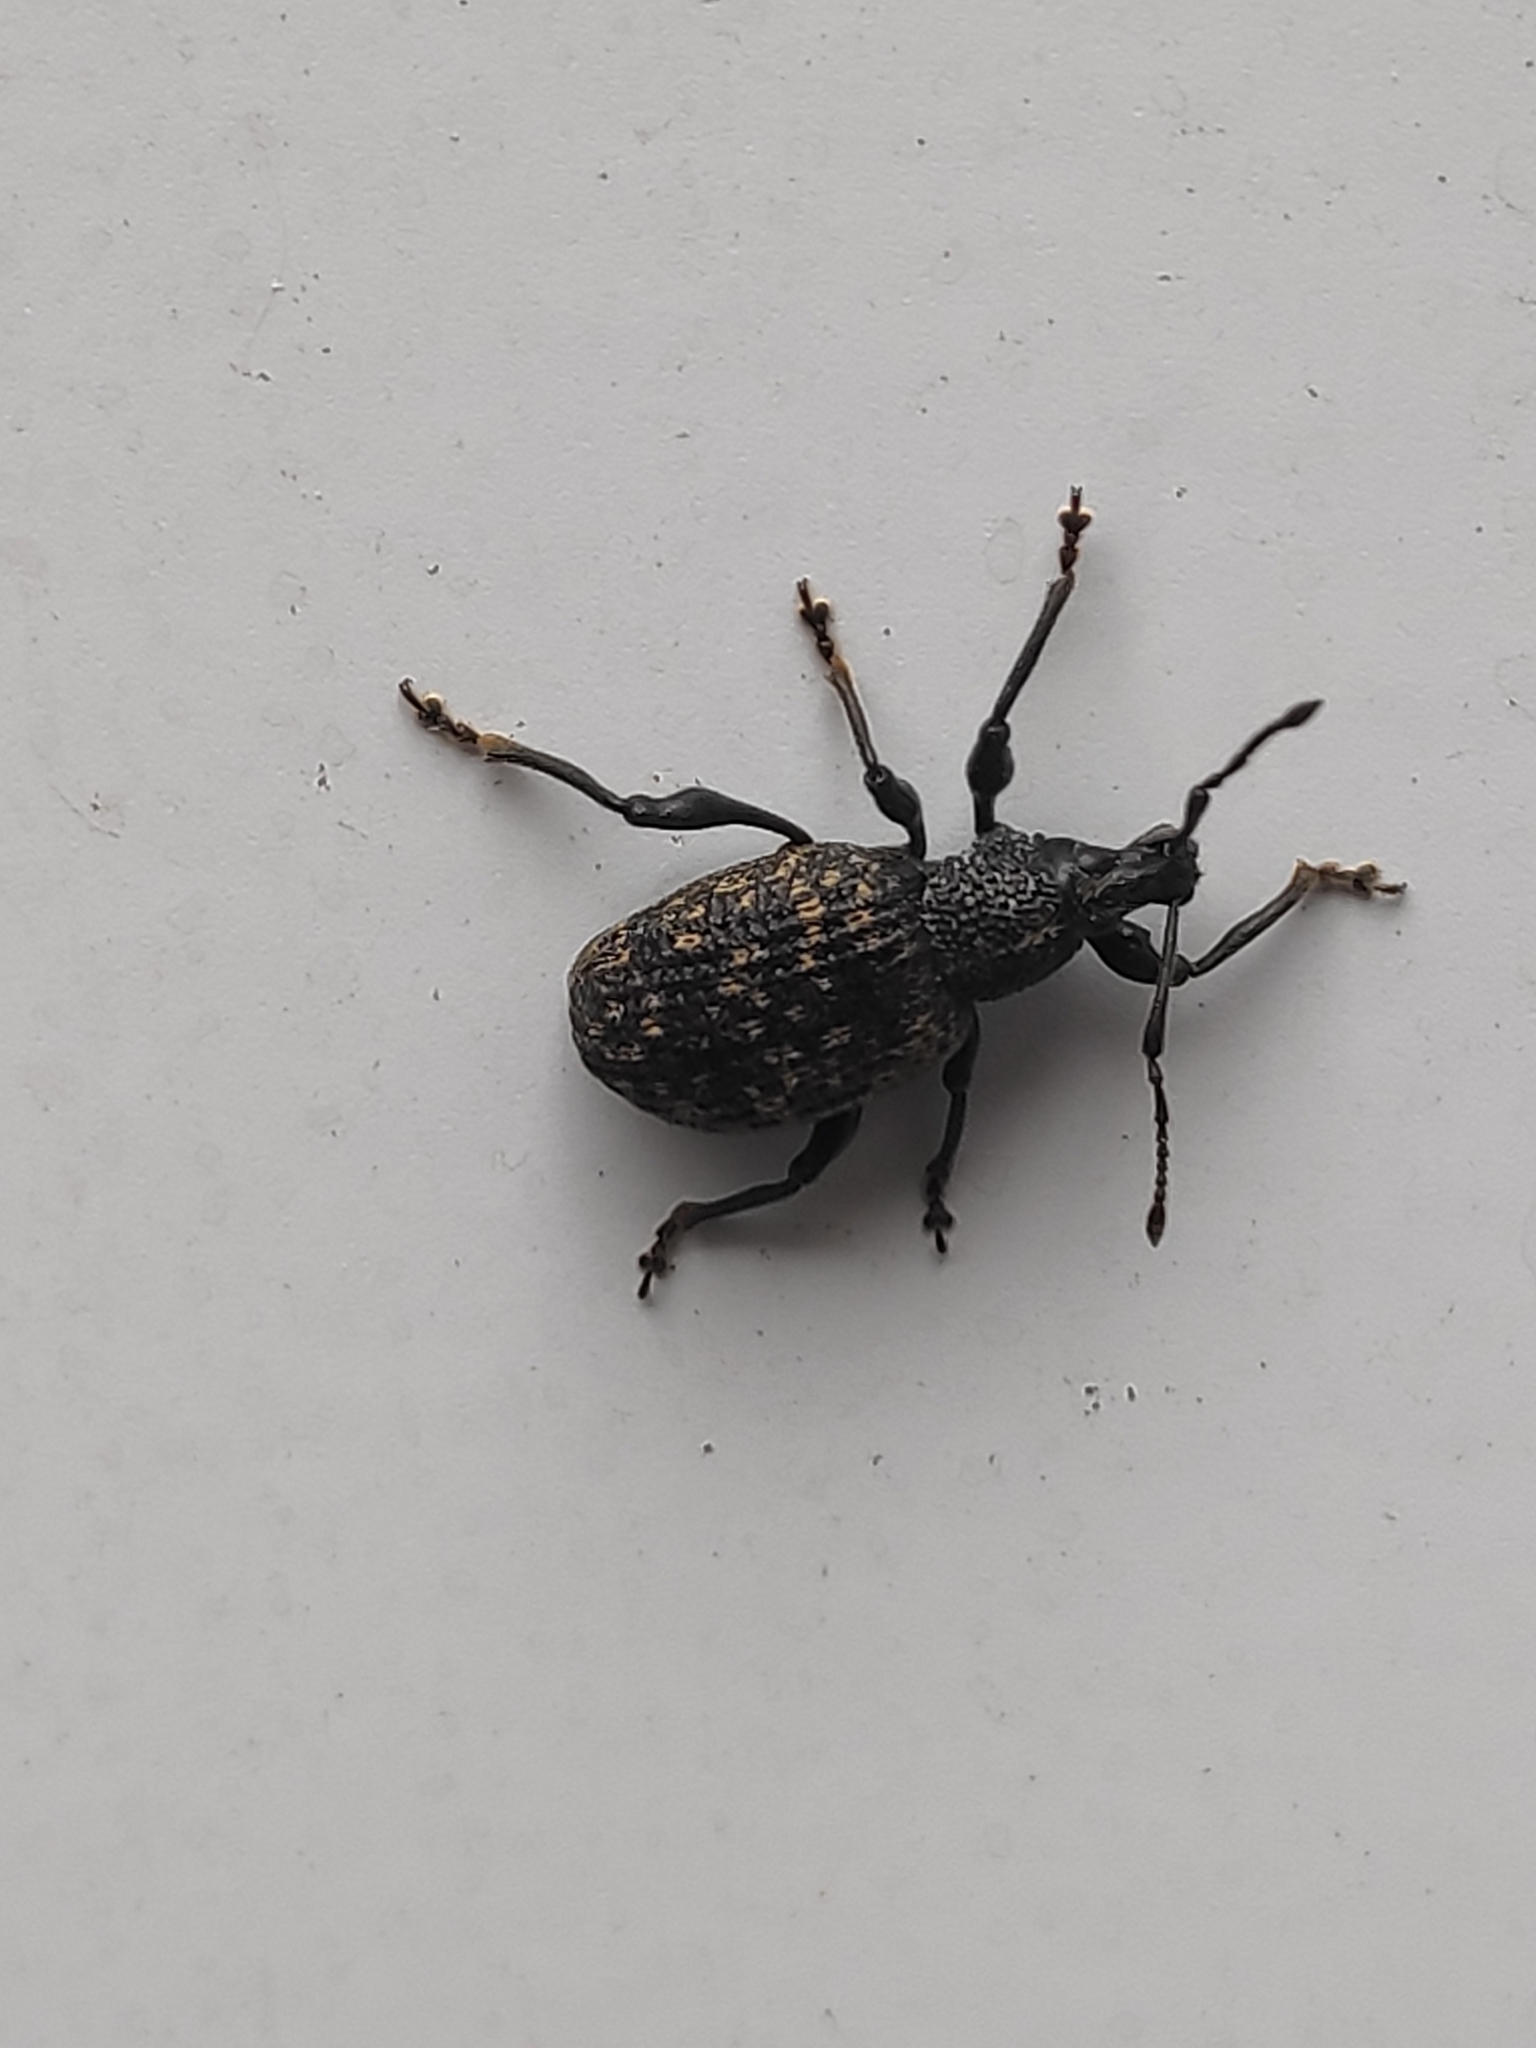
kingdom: Animalia
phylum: Arthropoda
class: Insecta
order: Coleoptera
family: Curculionidae
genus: Otiorhynchus
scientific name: Otiorhynchus sulcatus
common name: Black vine weevil
